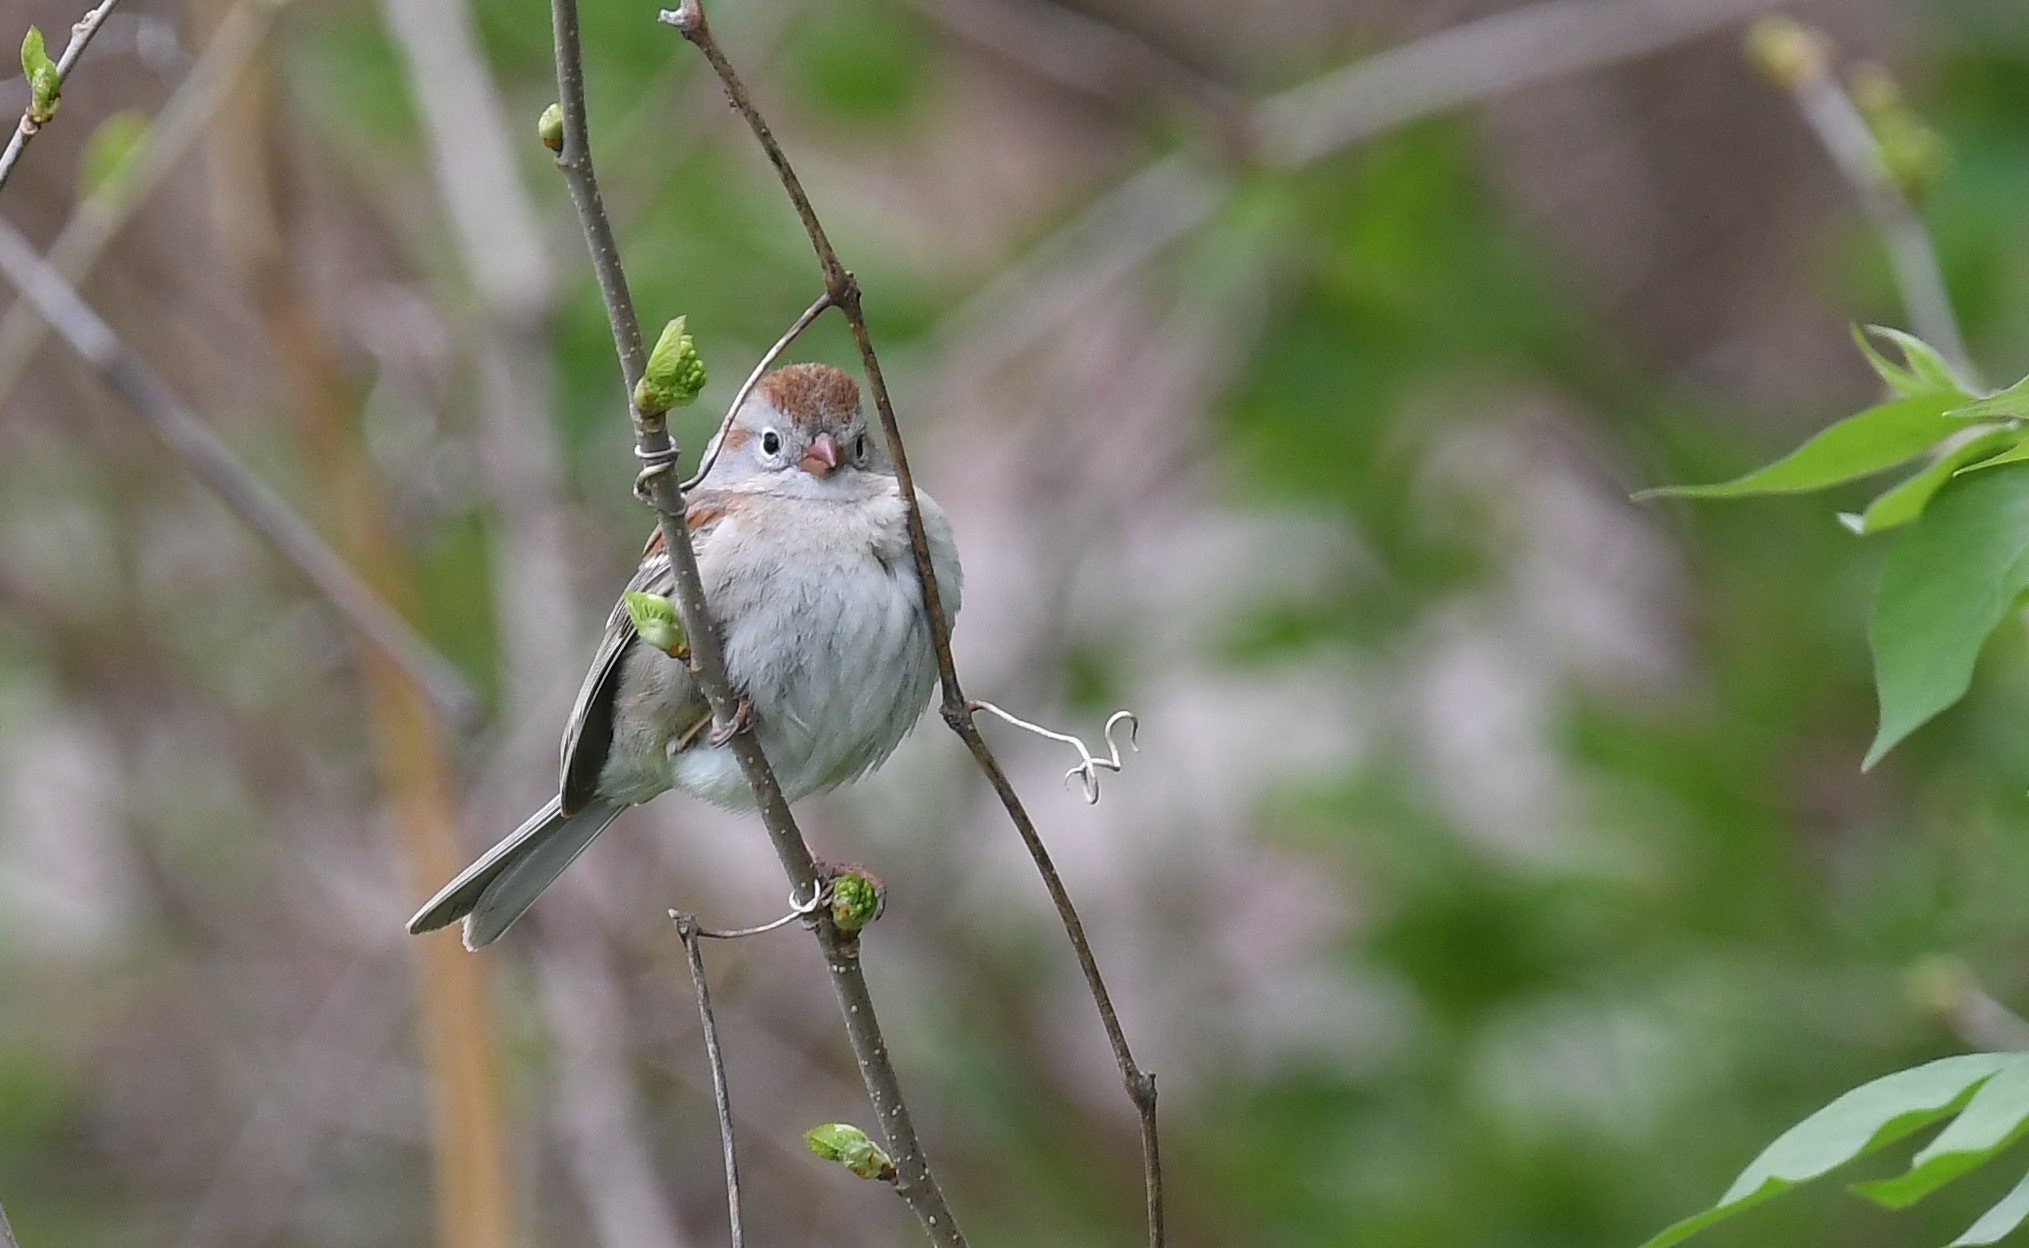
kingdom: Animalia
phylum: Chordata
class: Aves
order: Passeriformes
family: Passerellidae
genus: Spizella
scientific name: Spizella pusilla
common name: Field sparrow
